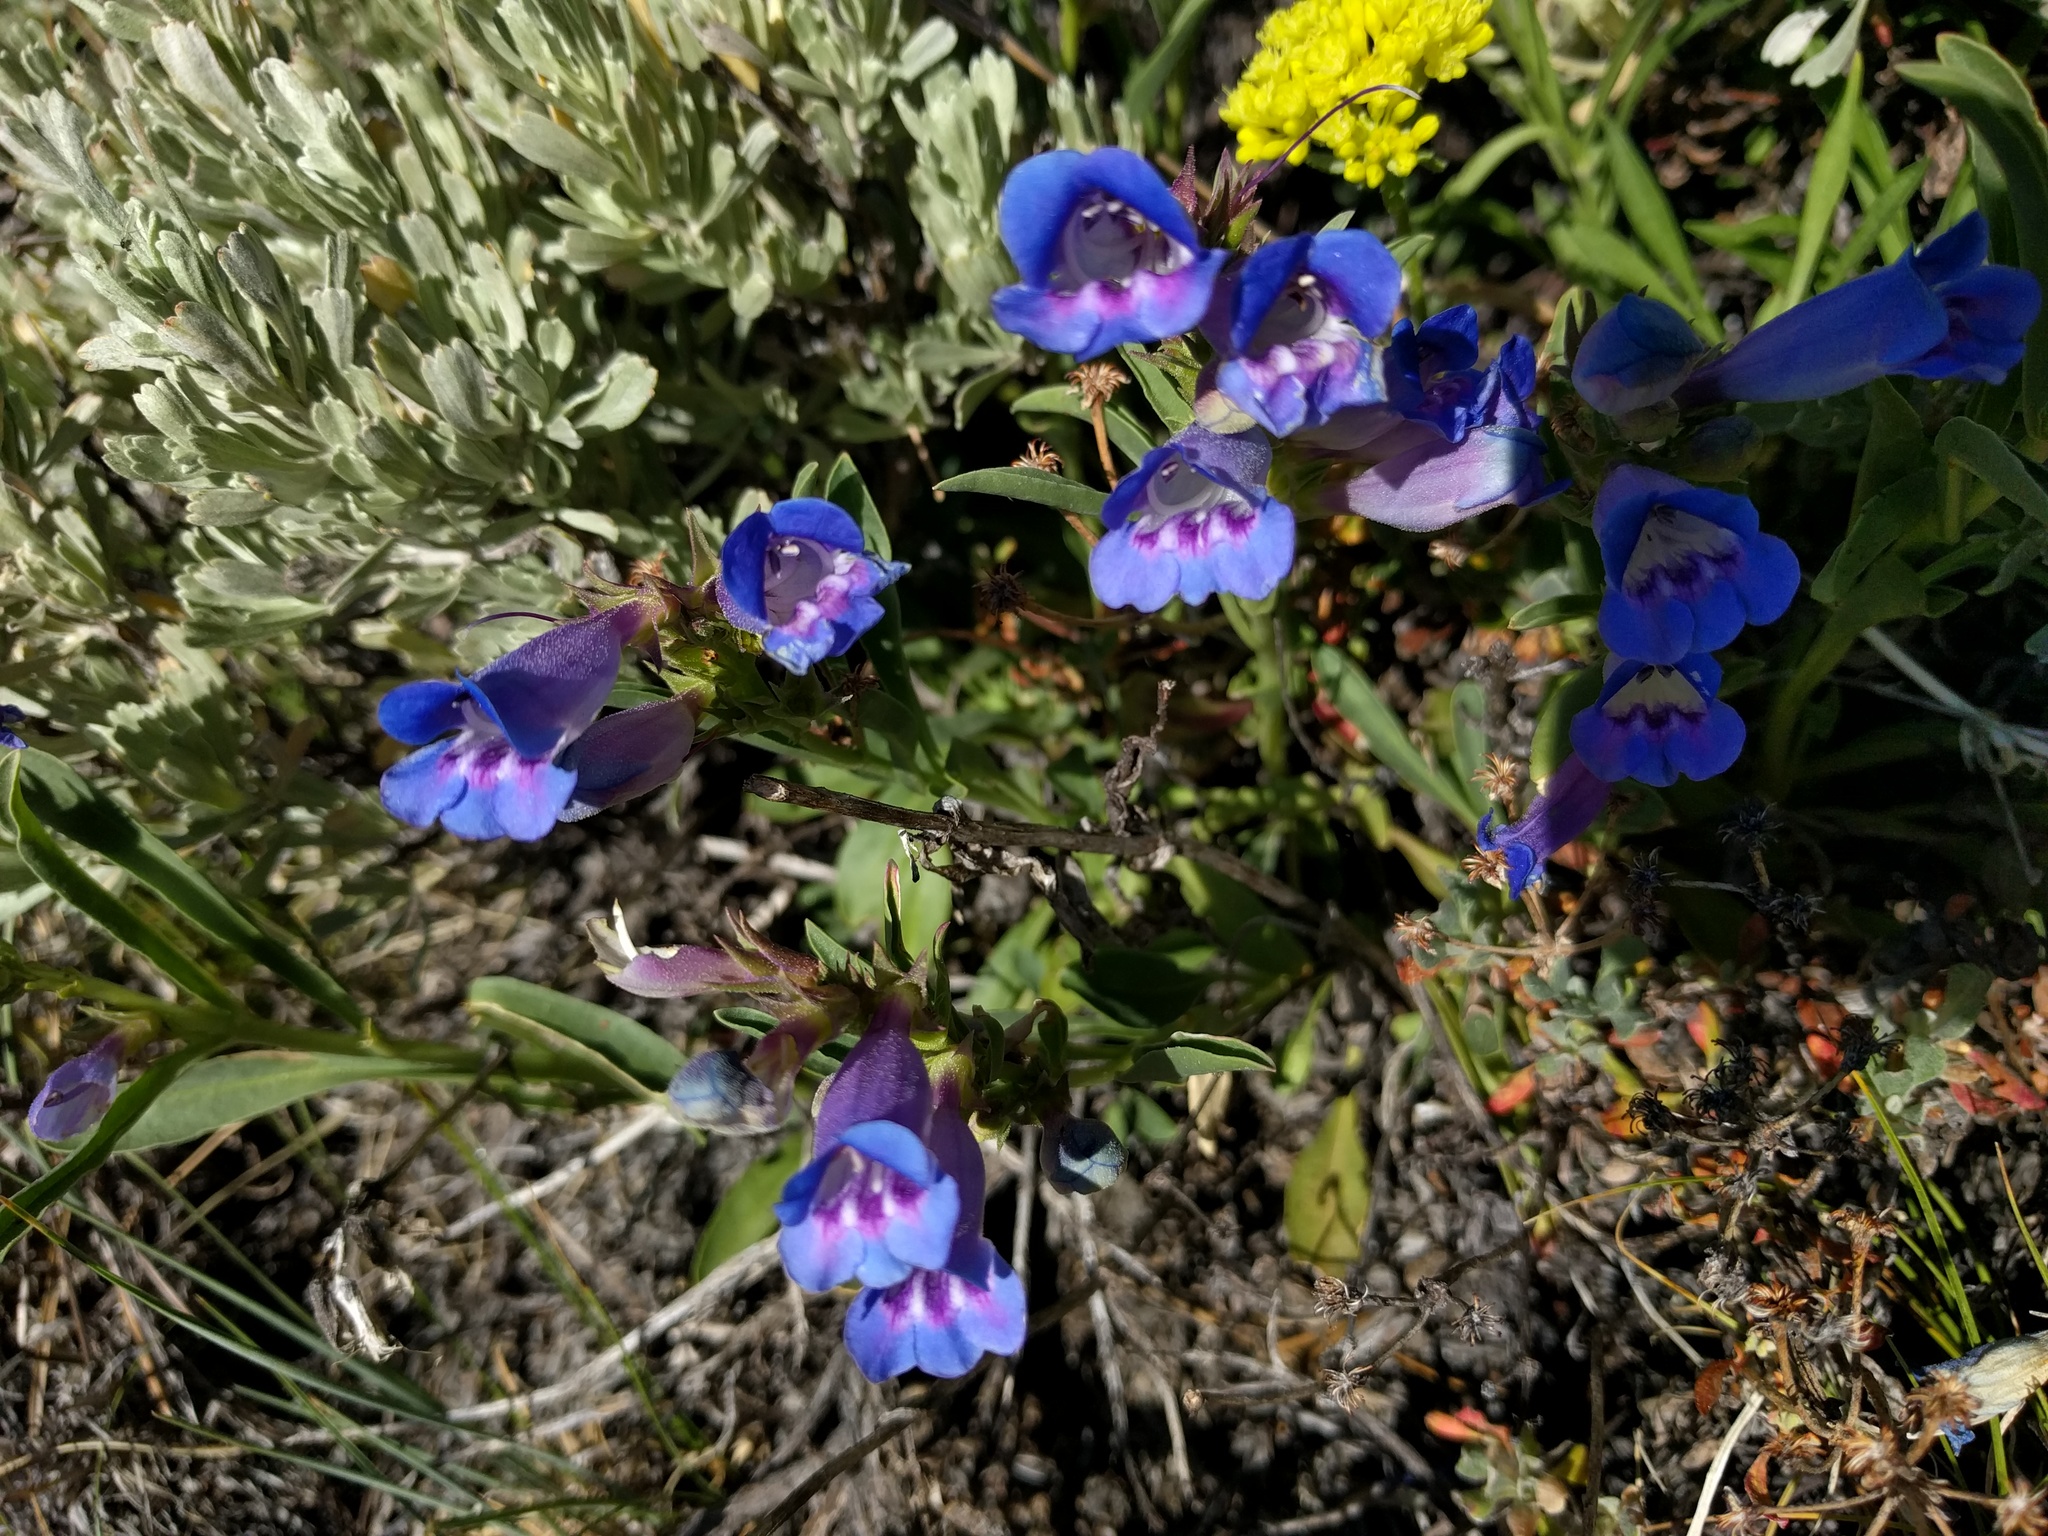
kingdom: Plantae
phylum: Tracheophyta
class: Magnoliopsida
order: Lamiales
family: Plantaginaceae
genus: Penstemon
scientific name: Penstemon speciosus
